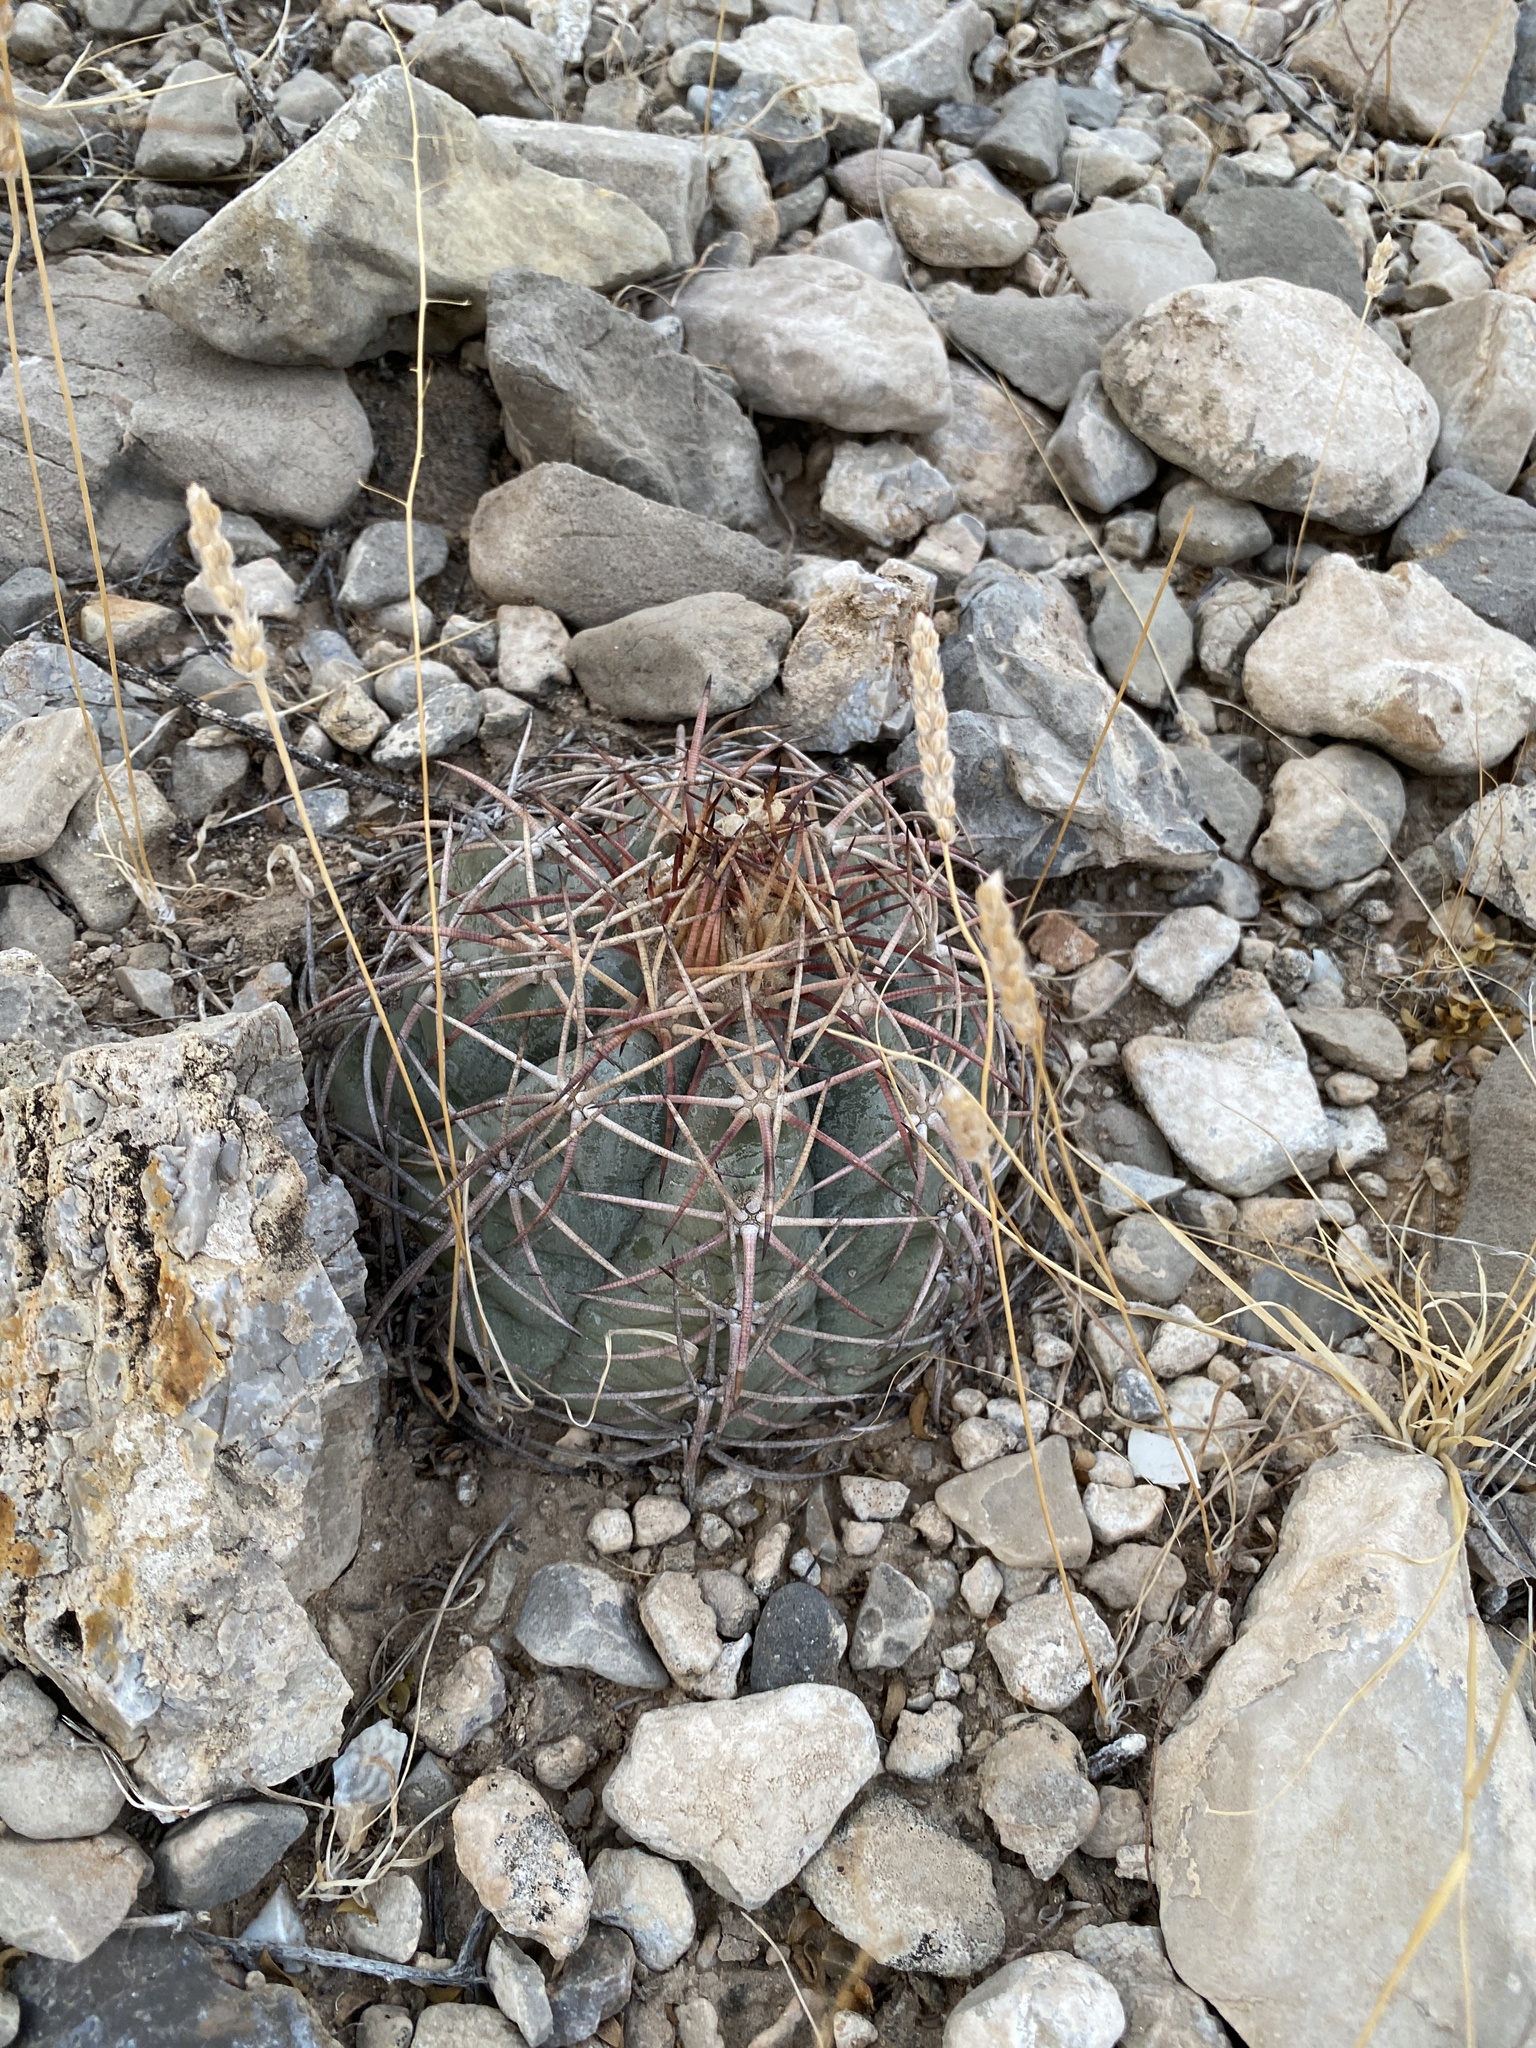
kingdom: Plantae
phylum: Tracheophyta
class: Magnoliopsida
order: Caryophyllales
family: Cactaceae
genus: Echinocactus
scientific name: Echinocactus horizonthalonius
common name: Devilshead
